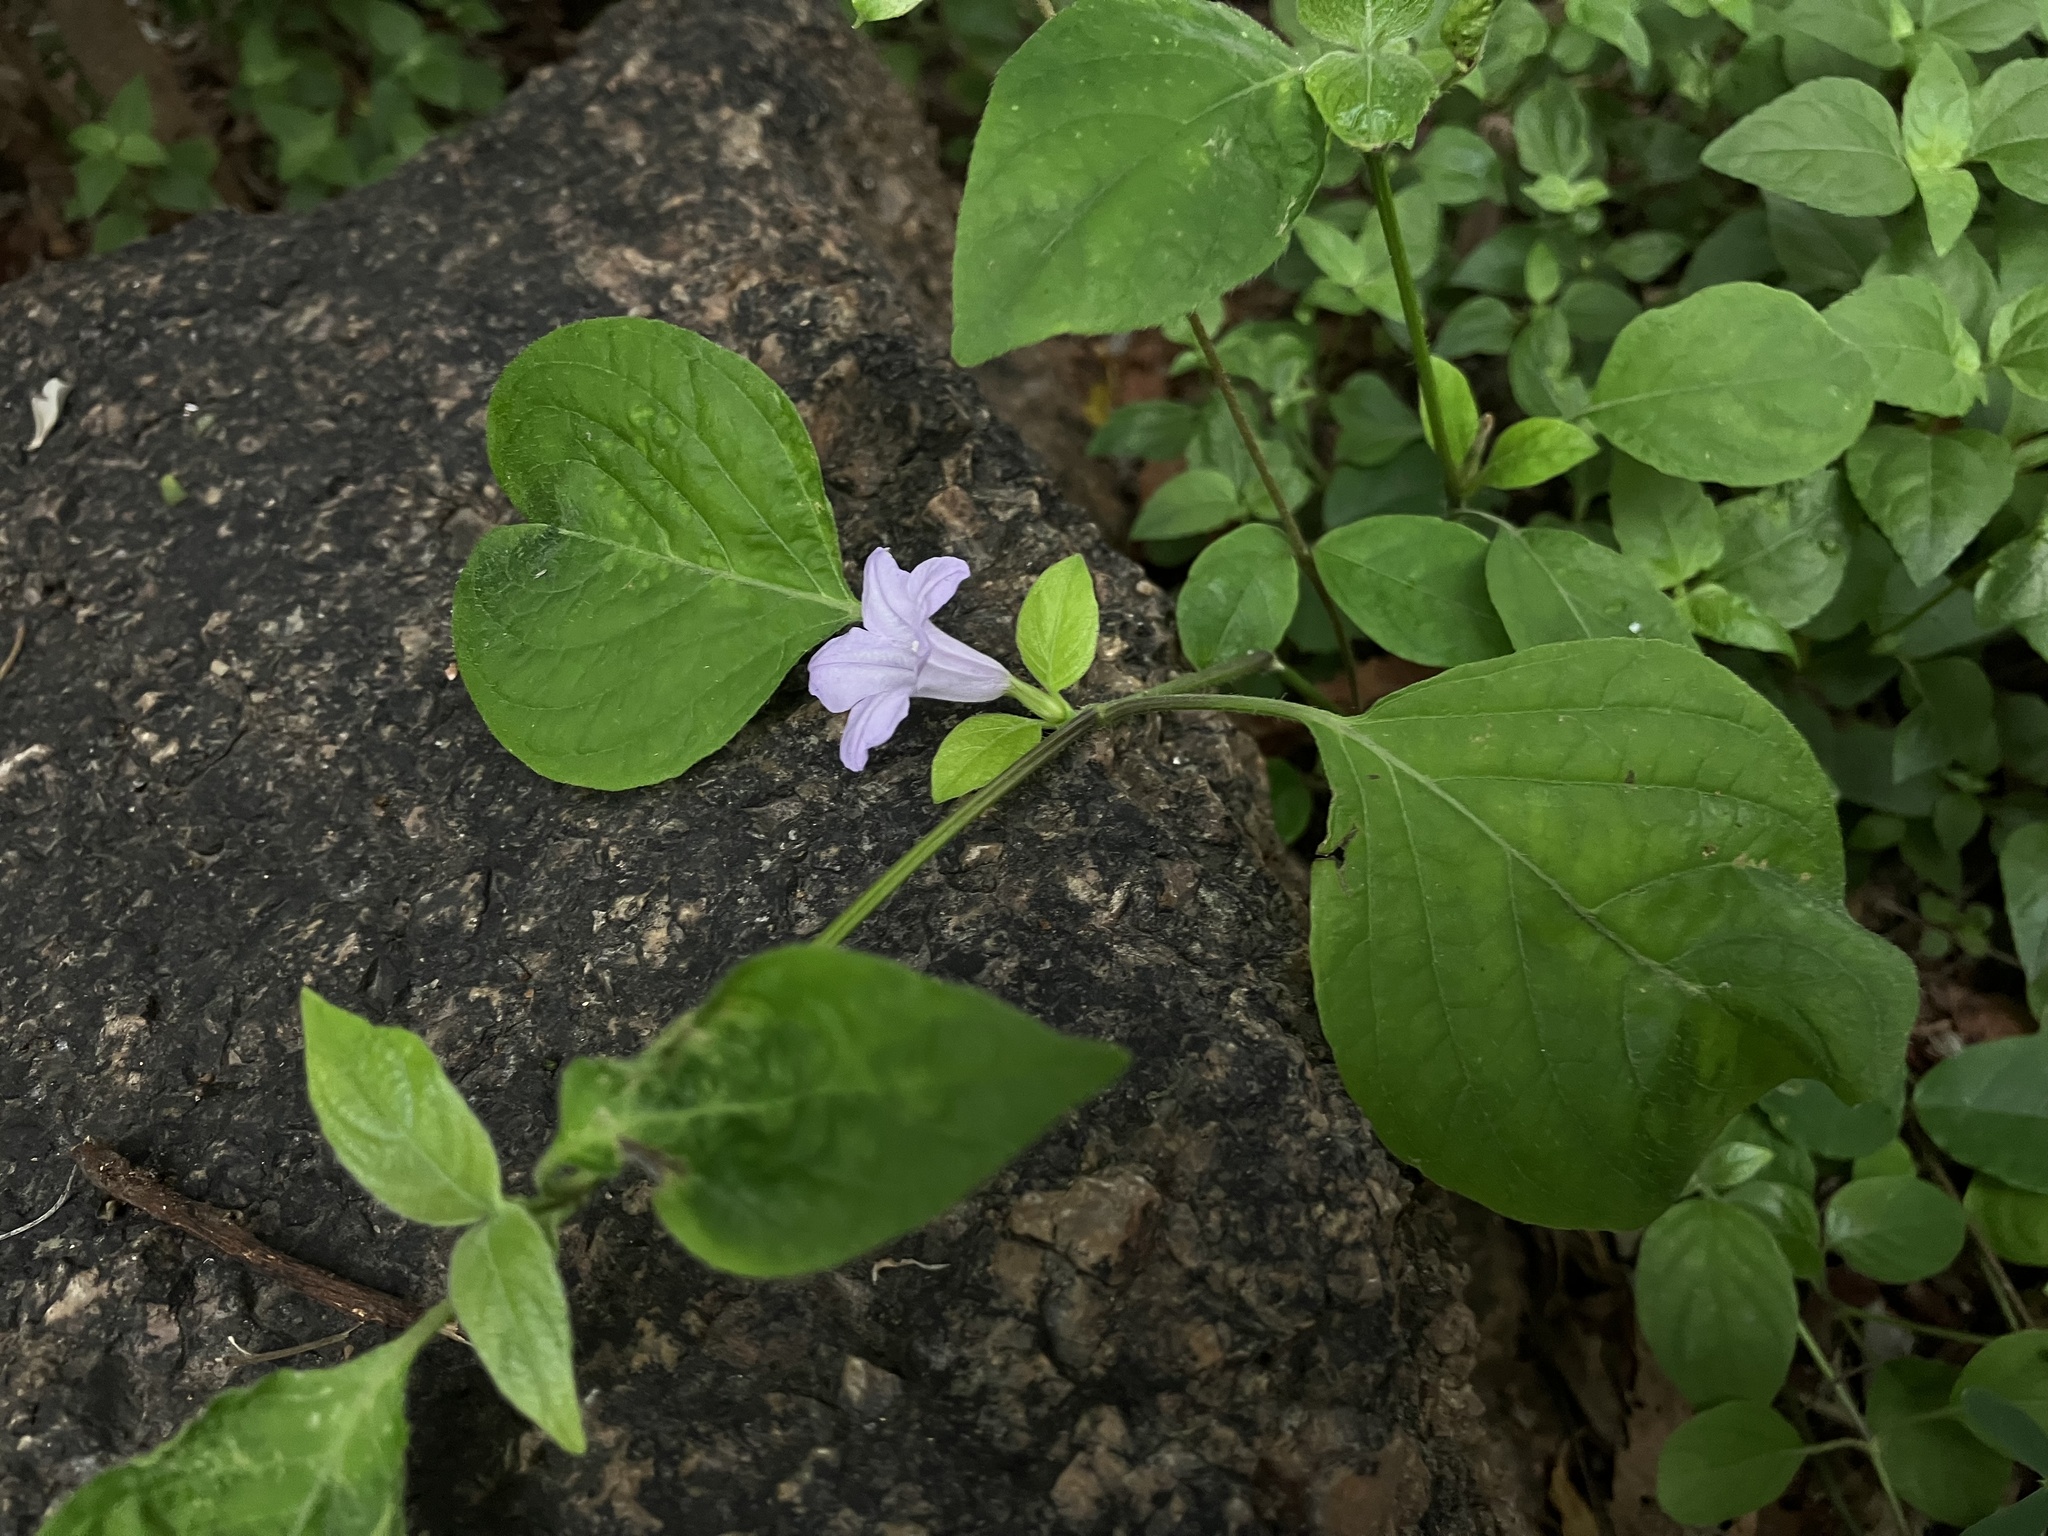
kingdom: Plantae
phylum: Tracheophyta
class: Magnoliopsida
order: Lamiales
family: Acanthaceae
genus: Ruellia
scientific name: Ruellia prostrata
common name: Prostrate wild petunia
